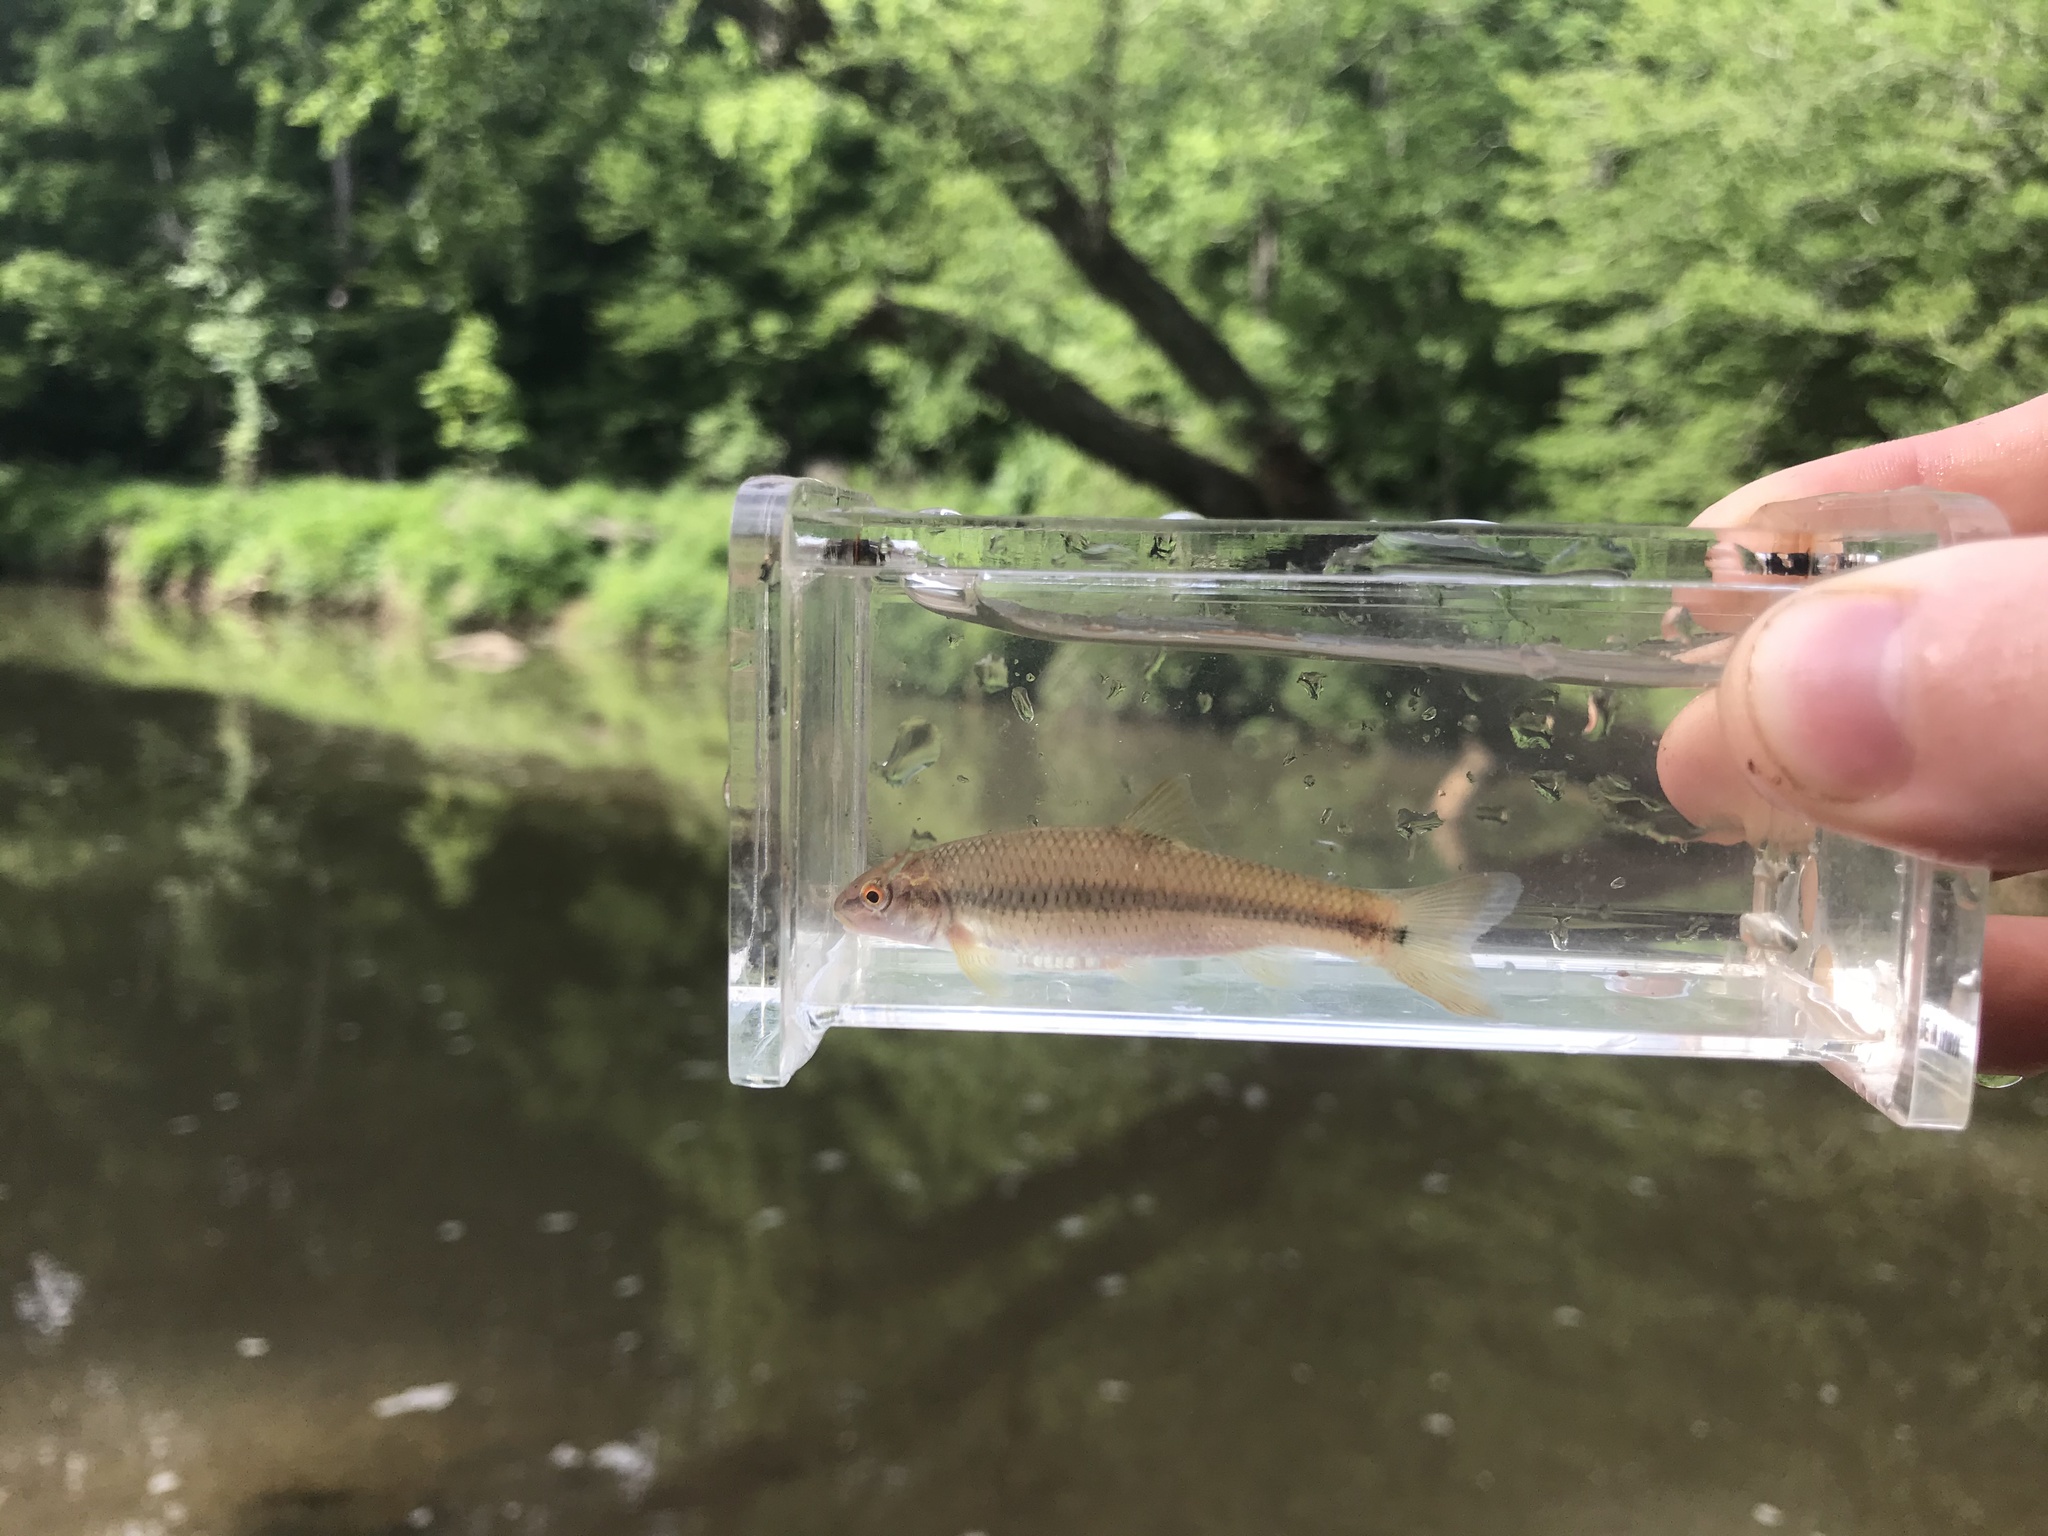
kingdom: Animalia
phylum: Chordata
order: Cypriniformes
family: Cyprinidae
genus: Nocomis
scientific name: Nocomis raneyi
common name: Bull chub
